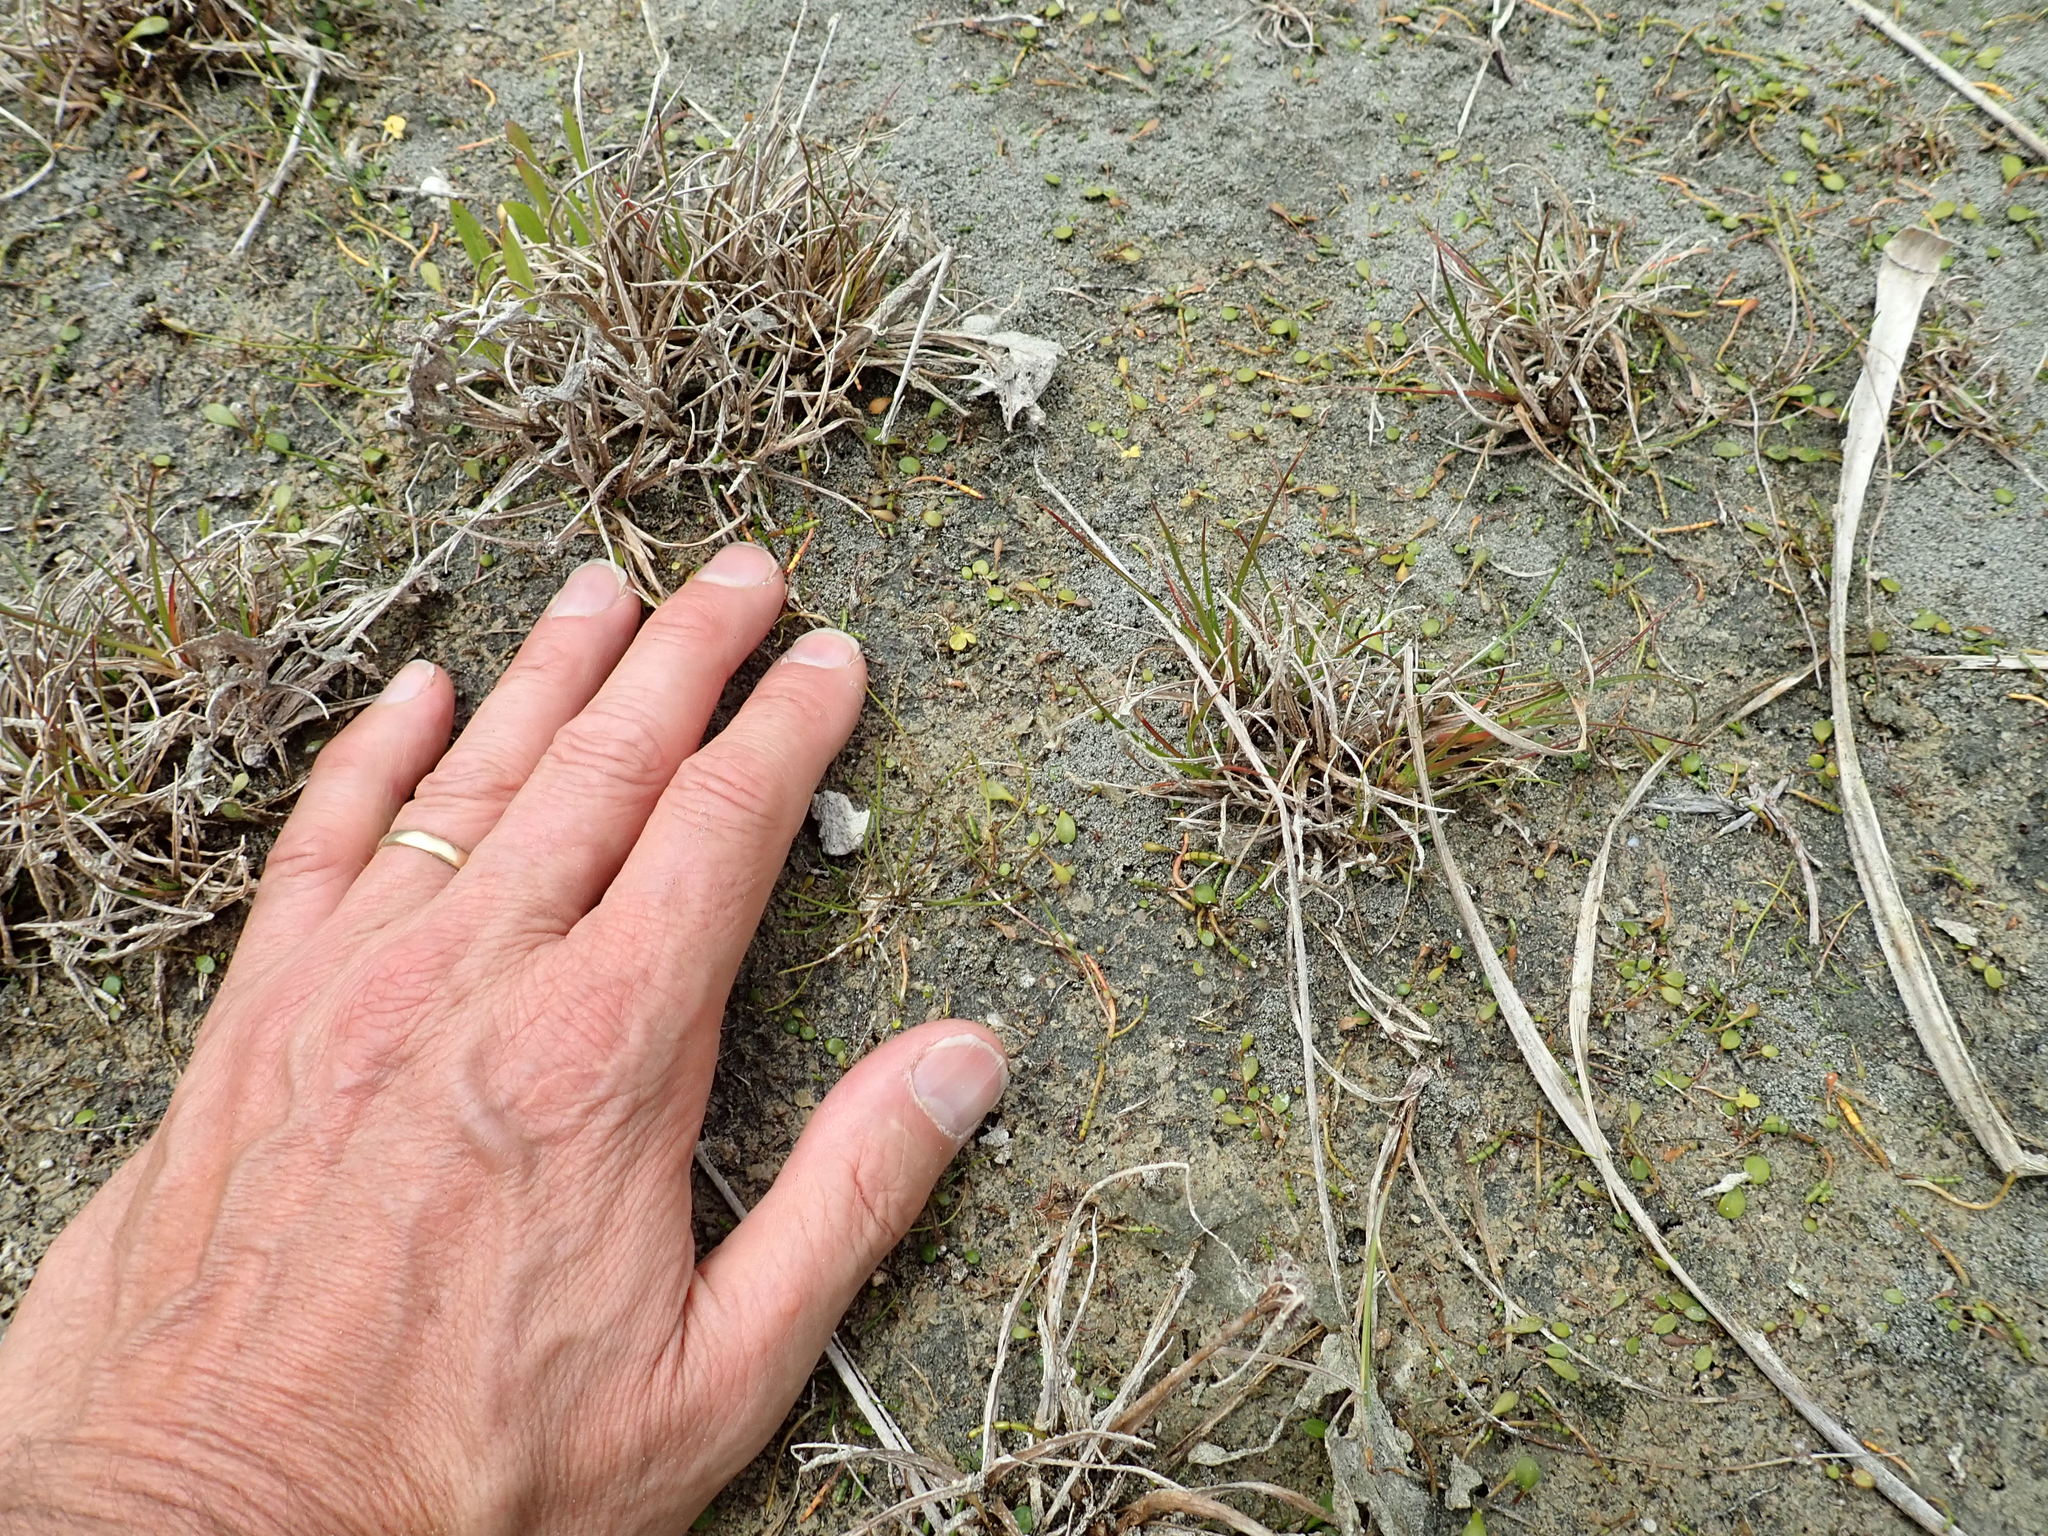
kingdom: Plantae
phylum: Tracheophyta
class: Magnoliopsida
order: Ranunculales
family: Ranunculaceae
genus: Ranunculus
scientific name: Ranunculus acaulis
